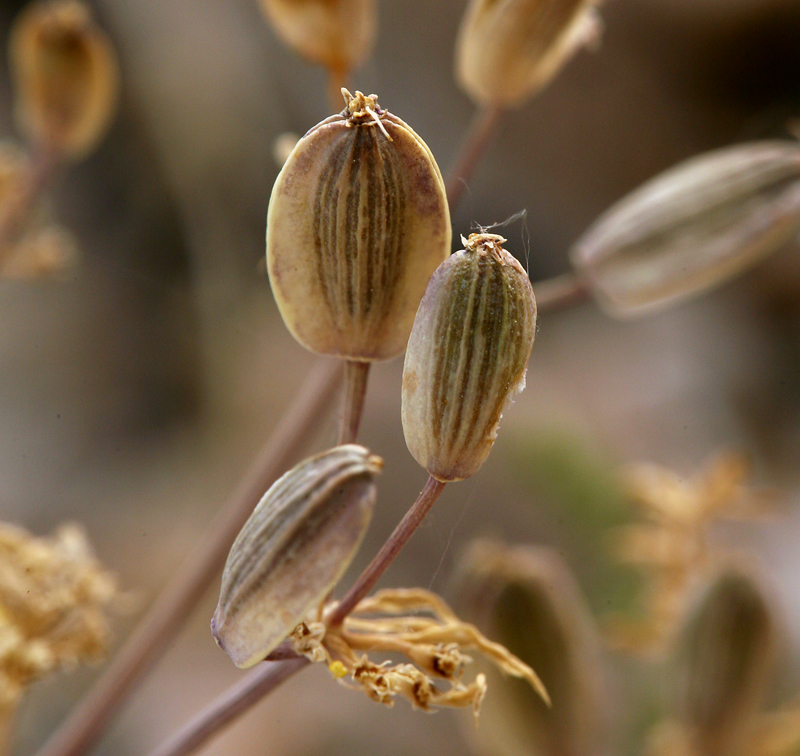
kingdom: Plantae
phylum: Tracheophyta
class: Magnoliopsida
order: Apiales
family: Apiaceae
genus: Lomatium
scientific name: Lomatium parryi
